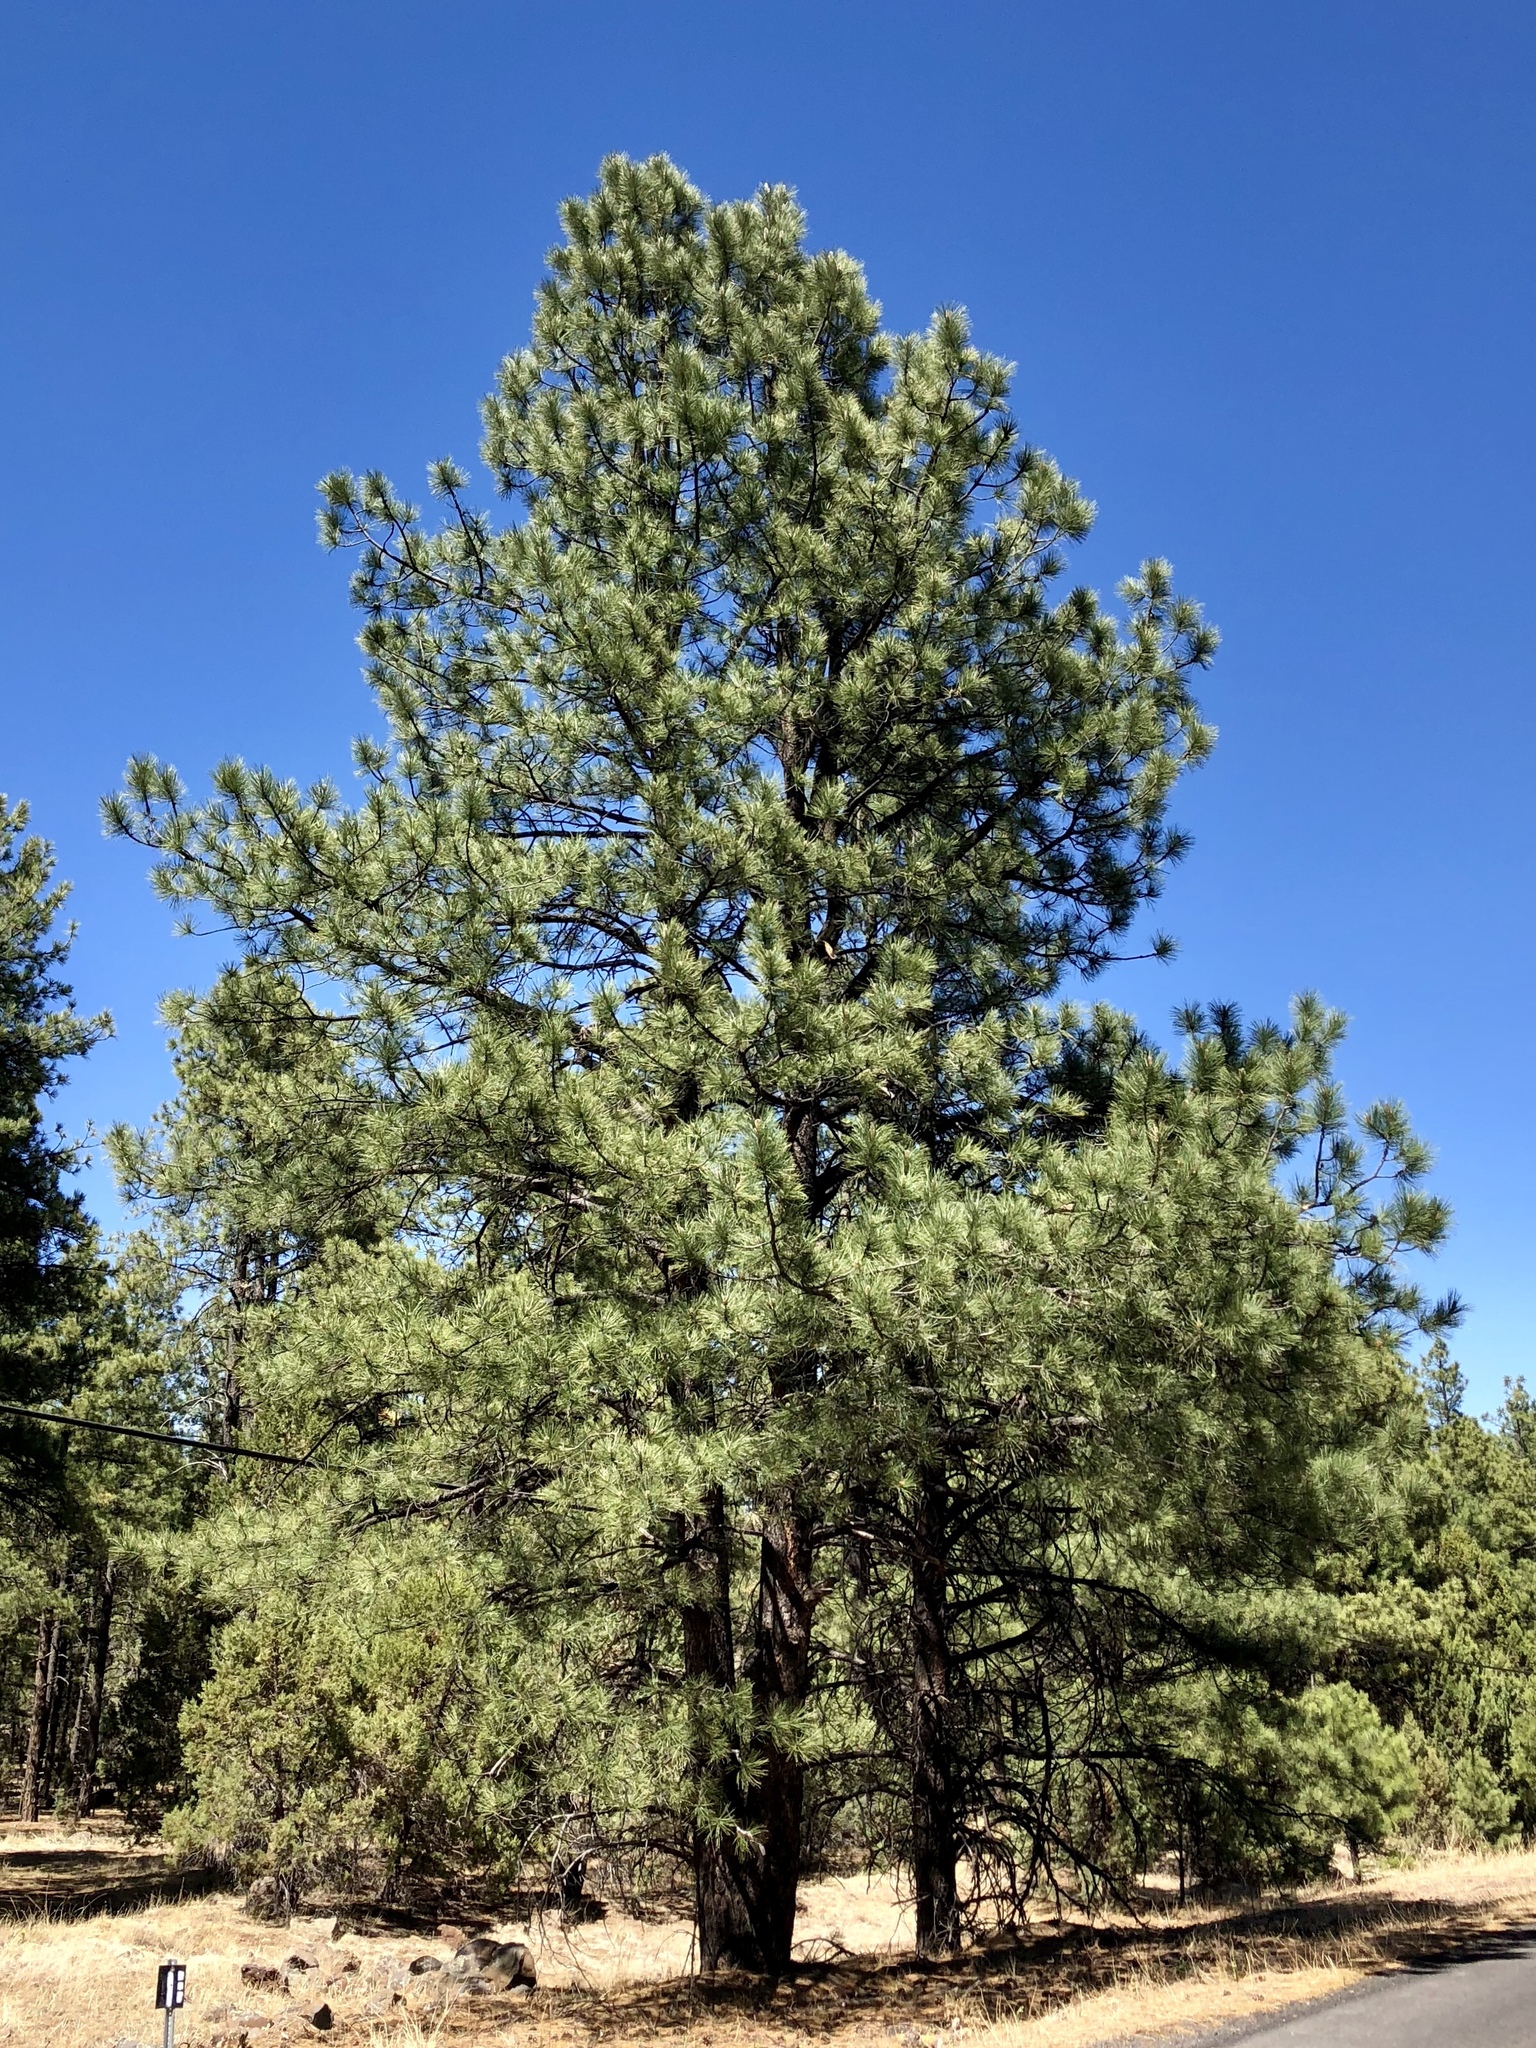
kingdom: Plantae
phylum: Tracheophyta
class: Pinopsida
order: Pinales
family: Pinaceae
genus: Pinus
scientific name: Pinus ponderosa
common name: Western yellow-pine
